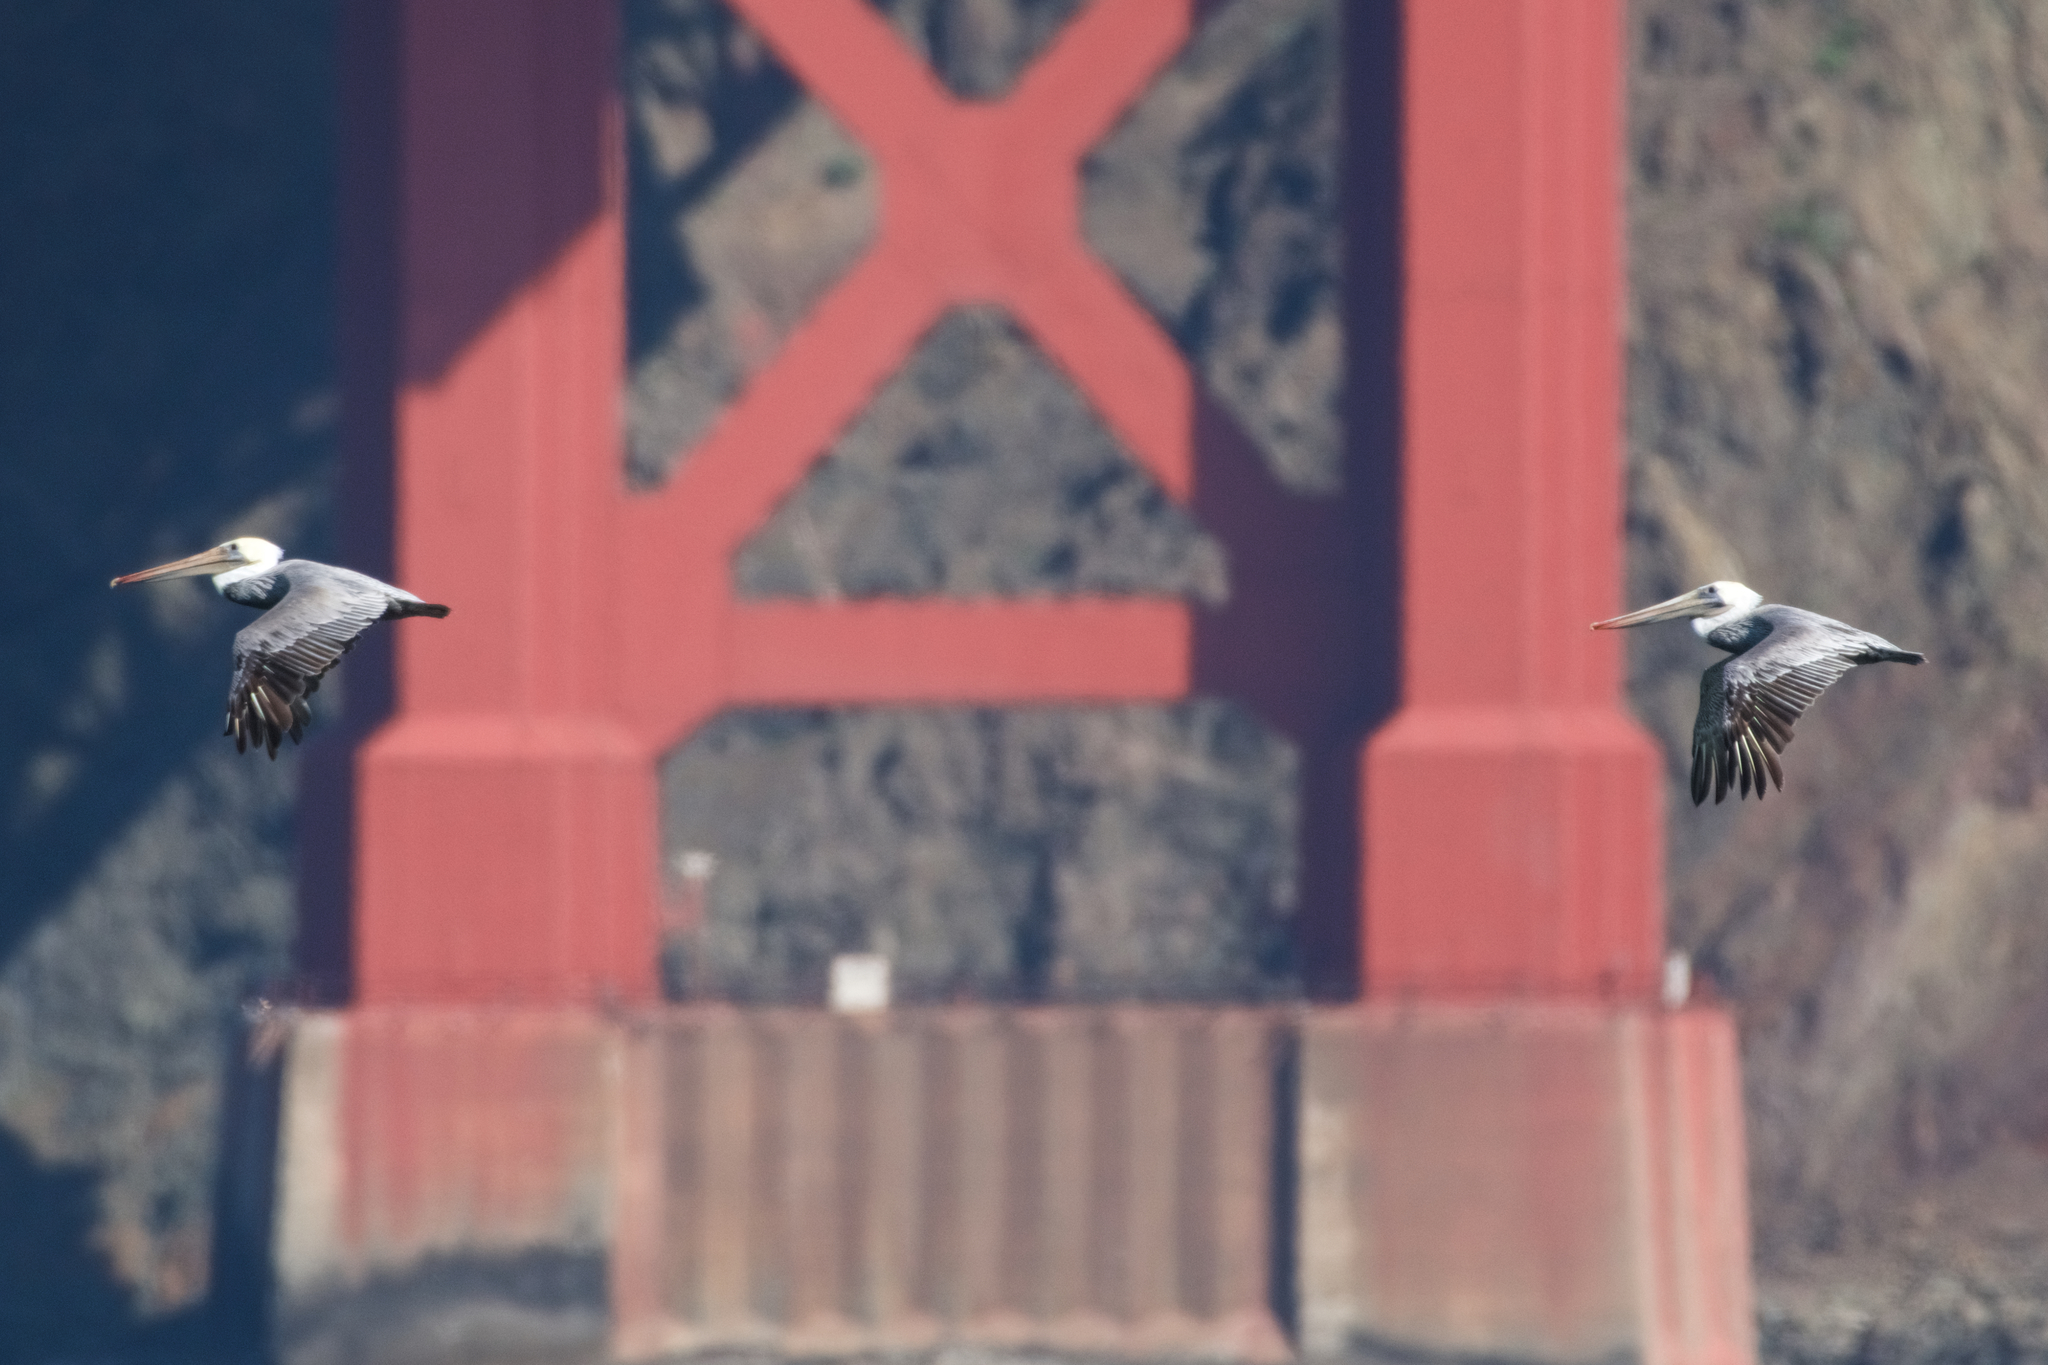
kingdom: Animalia
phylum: Chordata
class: Aves
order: Pelecaniformes
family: Pelecanidae
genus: Pelecanus
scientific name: Pelecanus occidentalis
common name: Brown pelican
